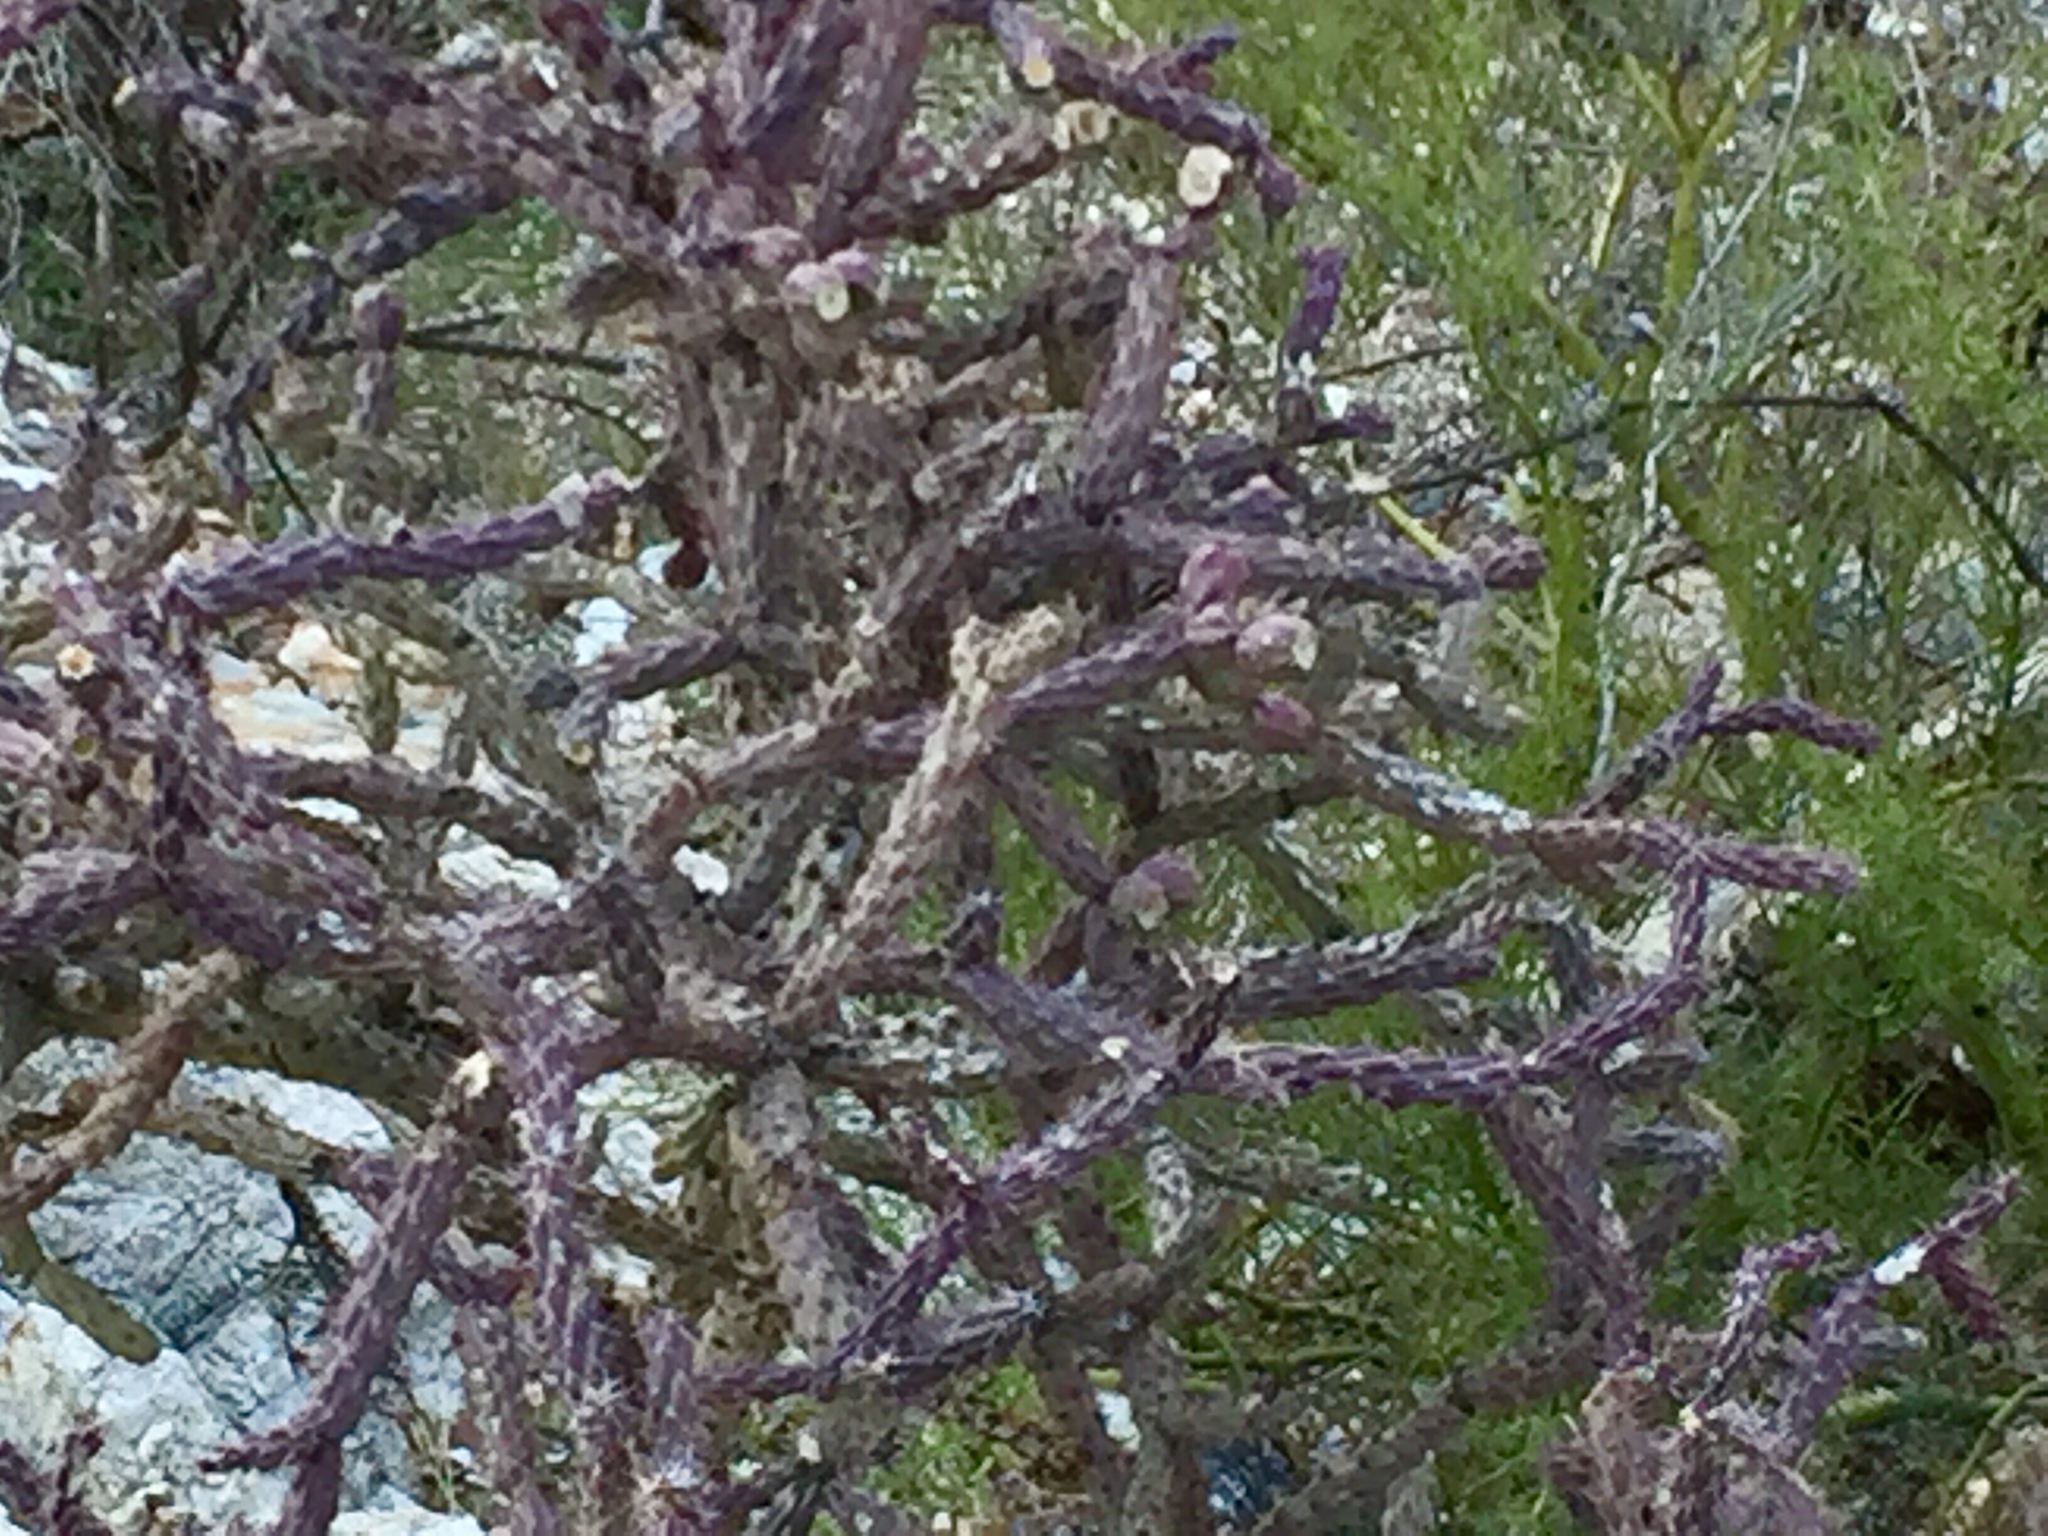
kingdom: Plantae
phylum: Tracheophyta
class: Magnoliopsida
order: Caryophyllales
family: Cactaceae
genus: Cylindropuntia
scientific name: Cylindropuntia thurberi
